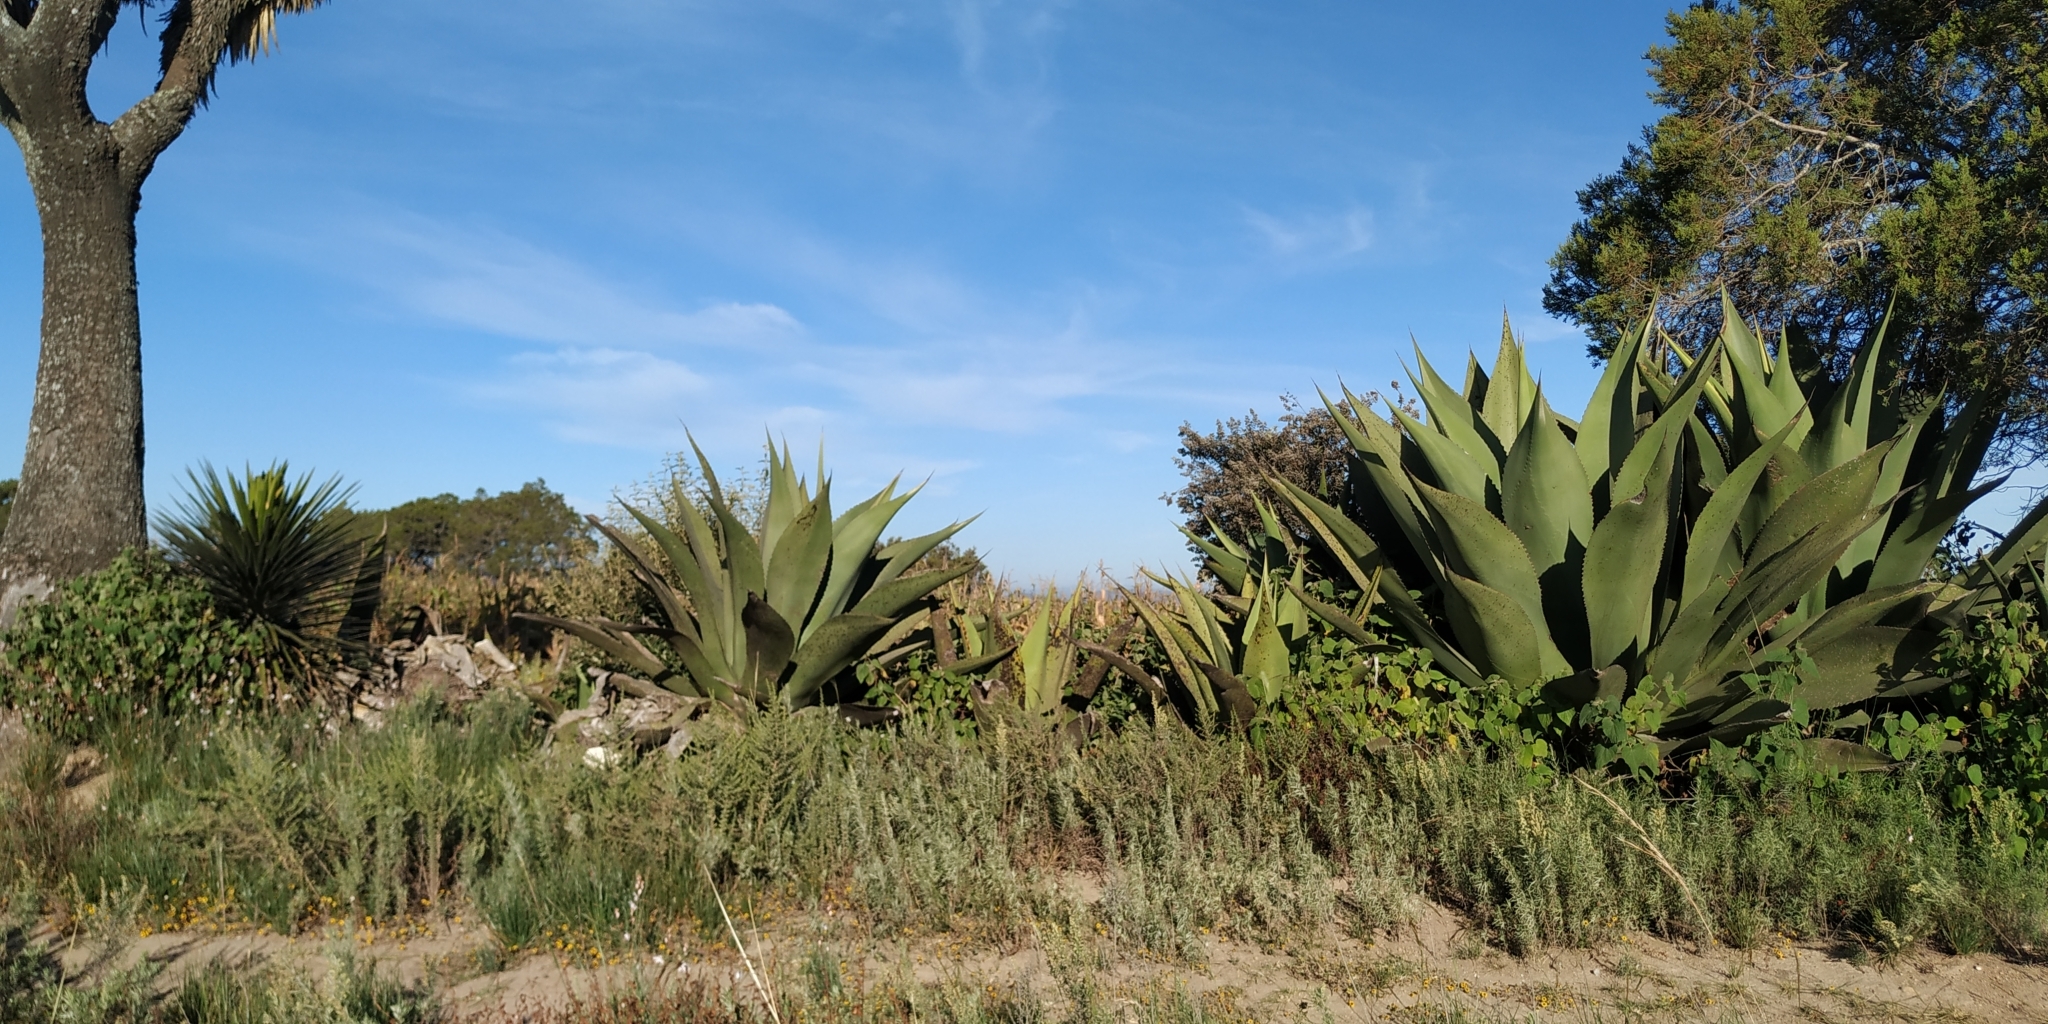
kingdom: Plantae
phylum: Tracheophyta
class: Liliopsida
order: Asparagales
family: Asparagaceae
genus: Agave
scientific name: Agave salmiana
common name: Pulque agave
